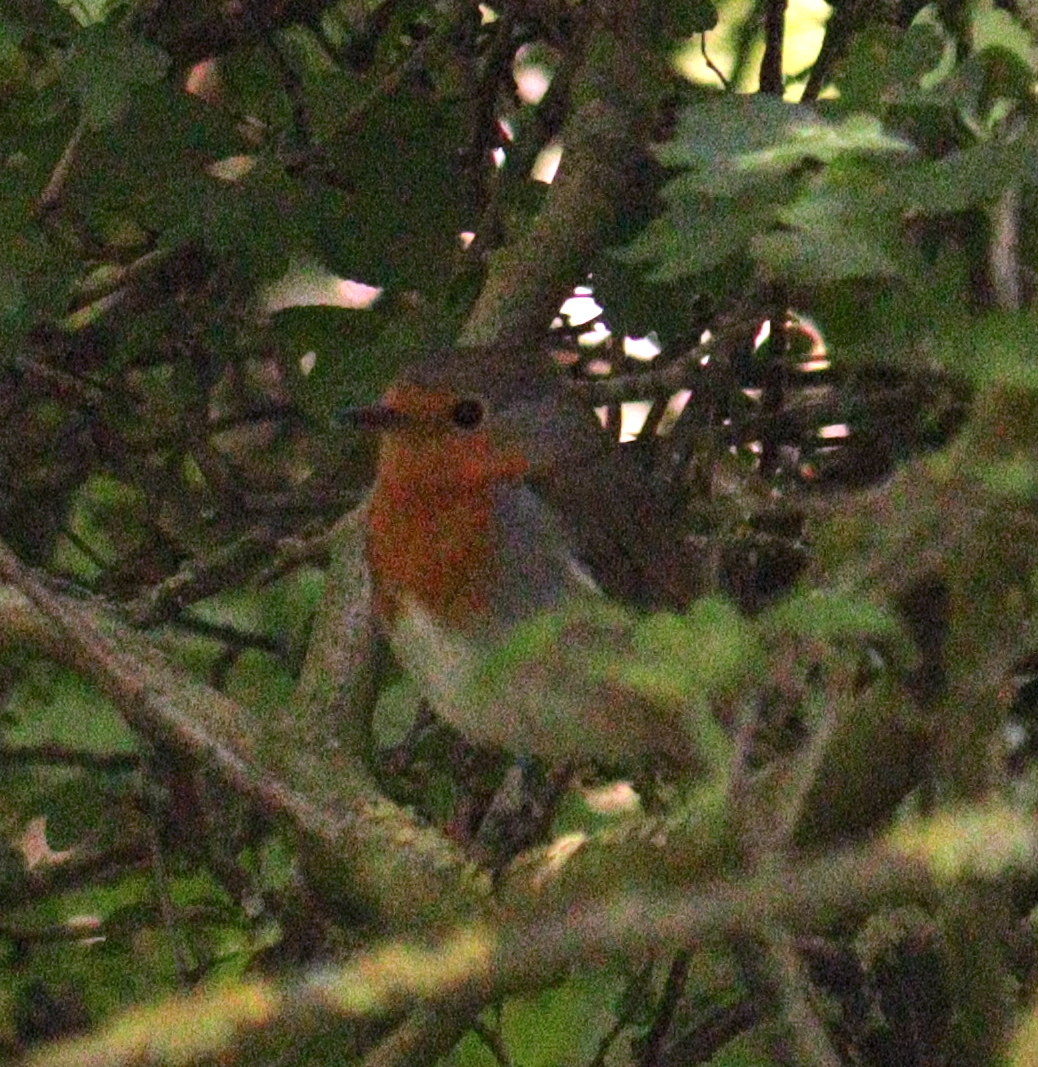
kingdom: Animalia
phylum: Chordata
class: Aves
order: Passeriformes
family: Muscicapidae
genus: Erithacus
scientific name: Erithacus rubecula
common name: European robin
